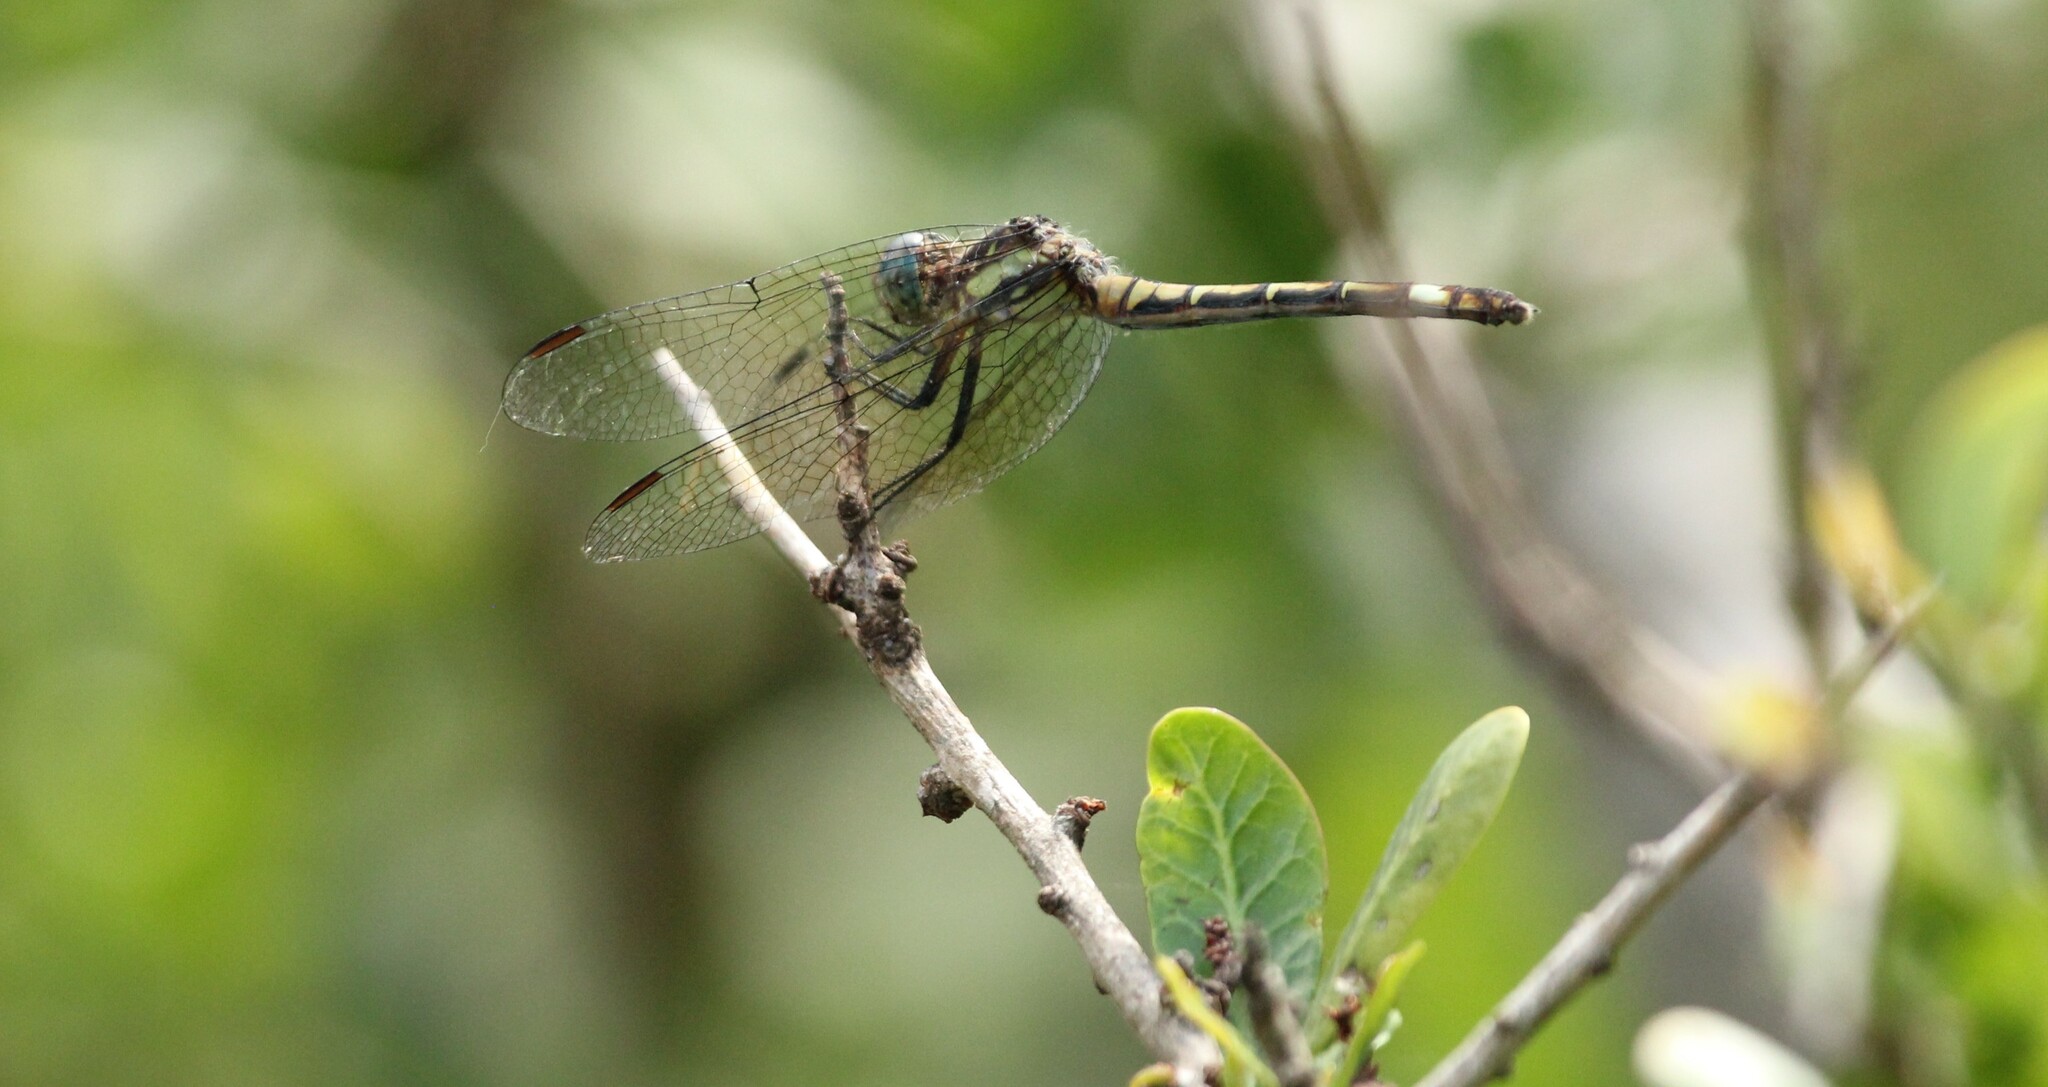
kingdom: Animalia
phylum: Arthropoda
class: Insecta
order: Odonata
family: Libellulidae
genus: Micrathyria
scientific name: Micrathyria hypodidyma
